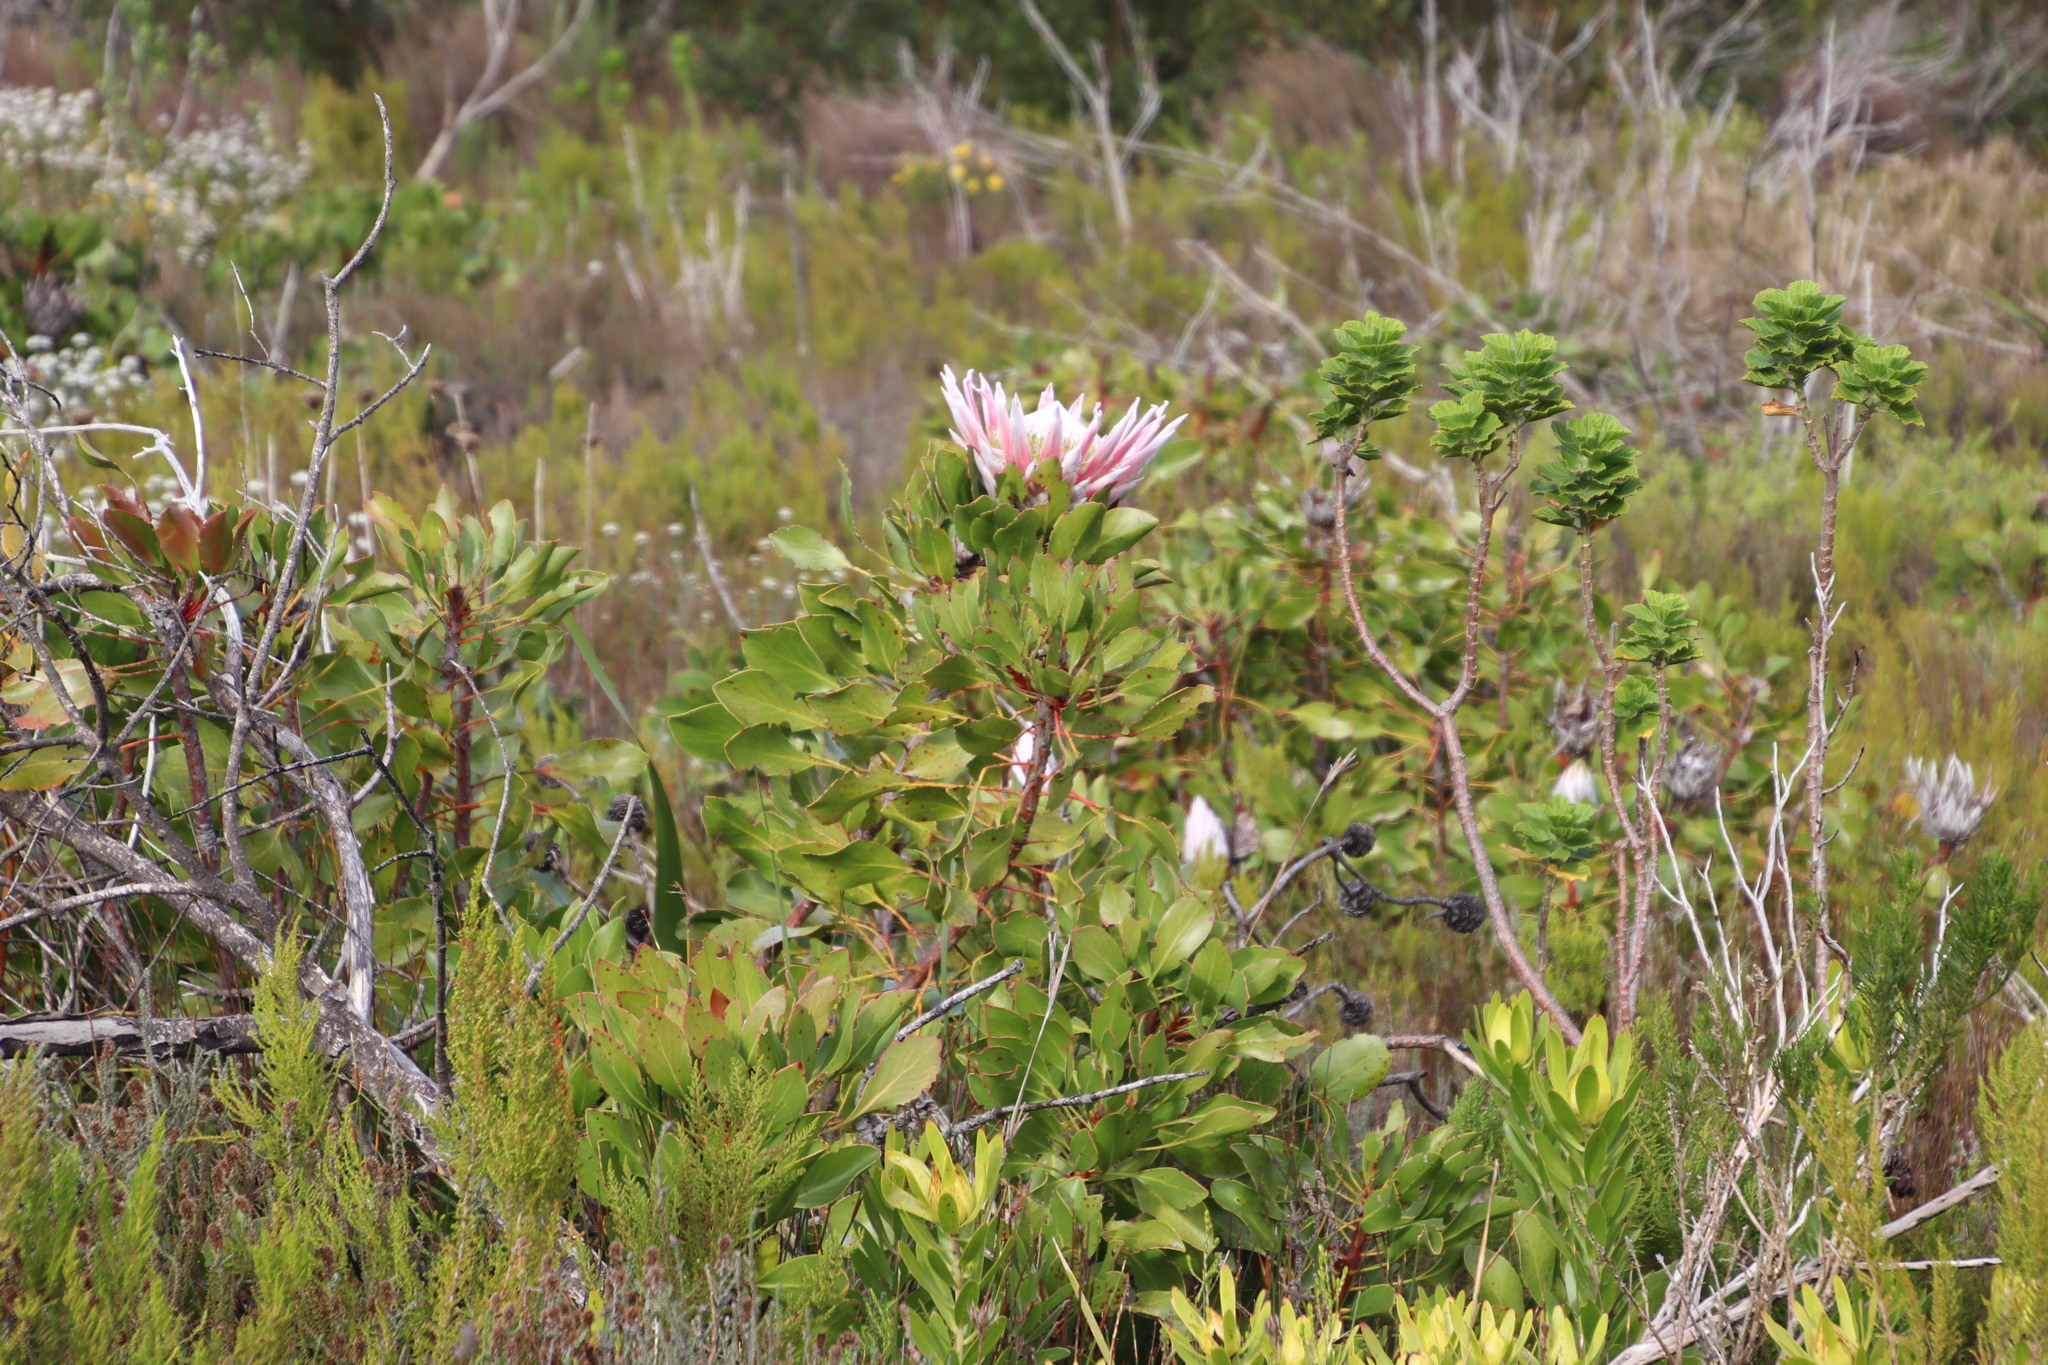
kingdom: Plantae
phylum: Tracheophyta
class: Magnoliopsida
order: Proteales
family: Proteaceae
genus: Protea
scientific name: Protea cynaroides
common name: King protea
